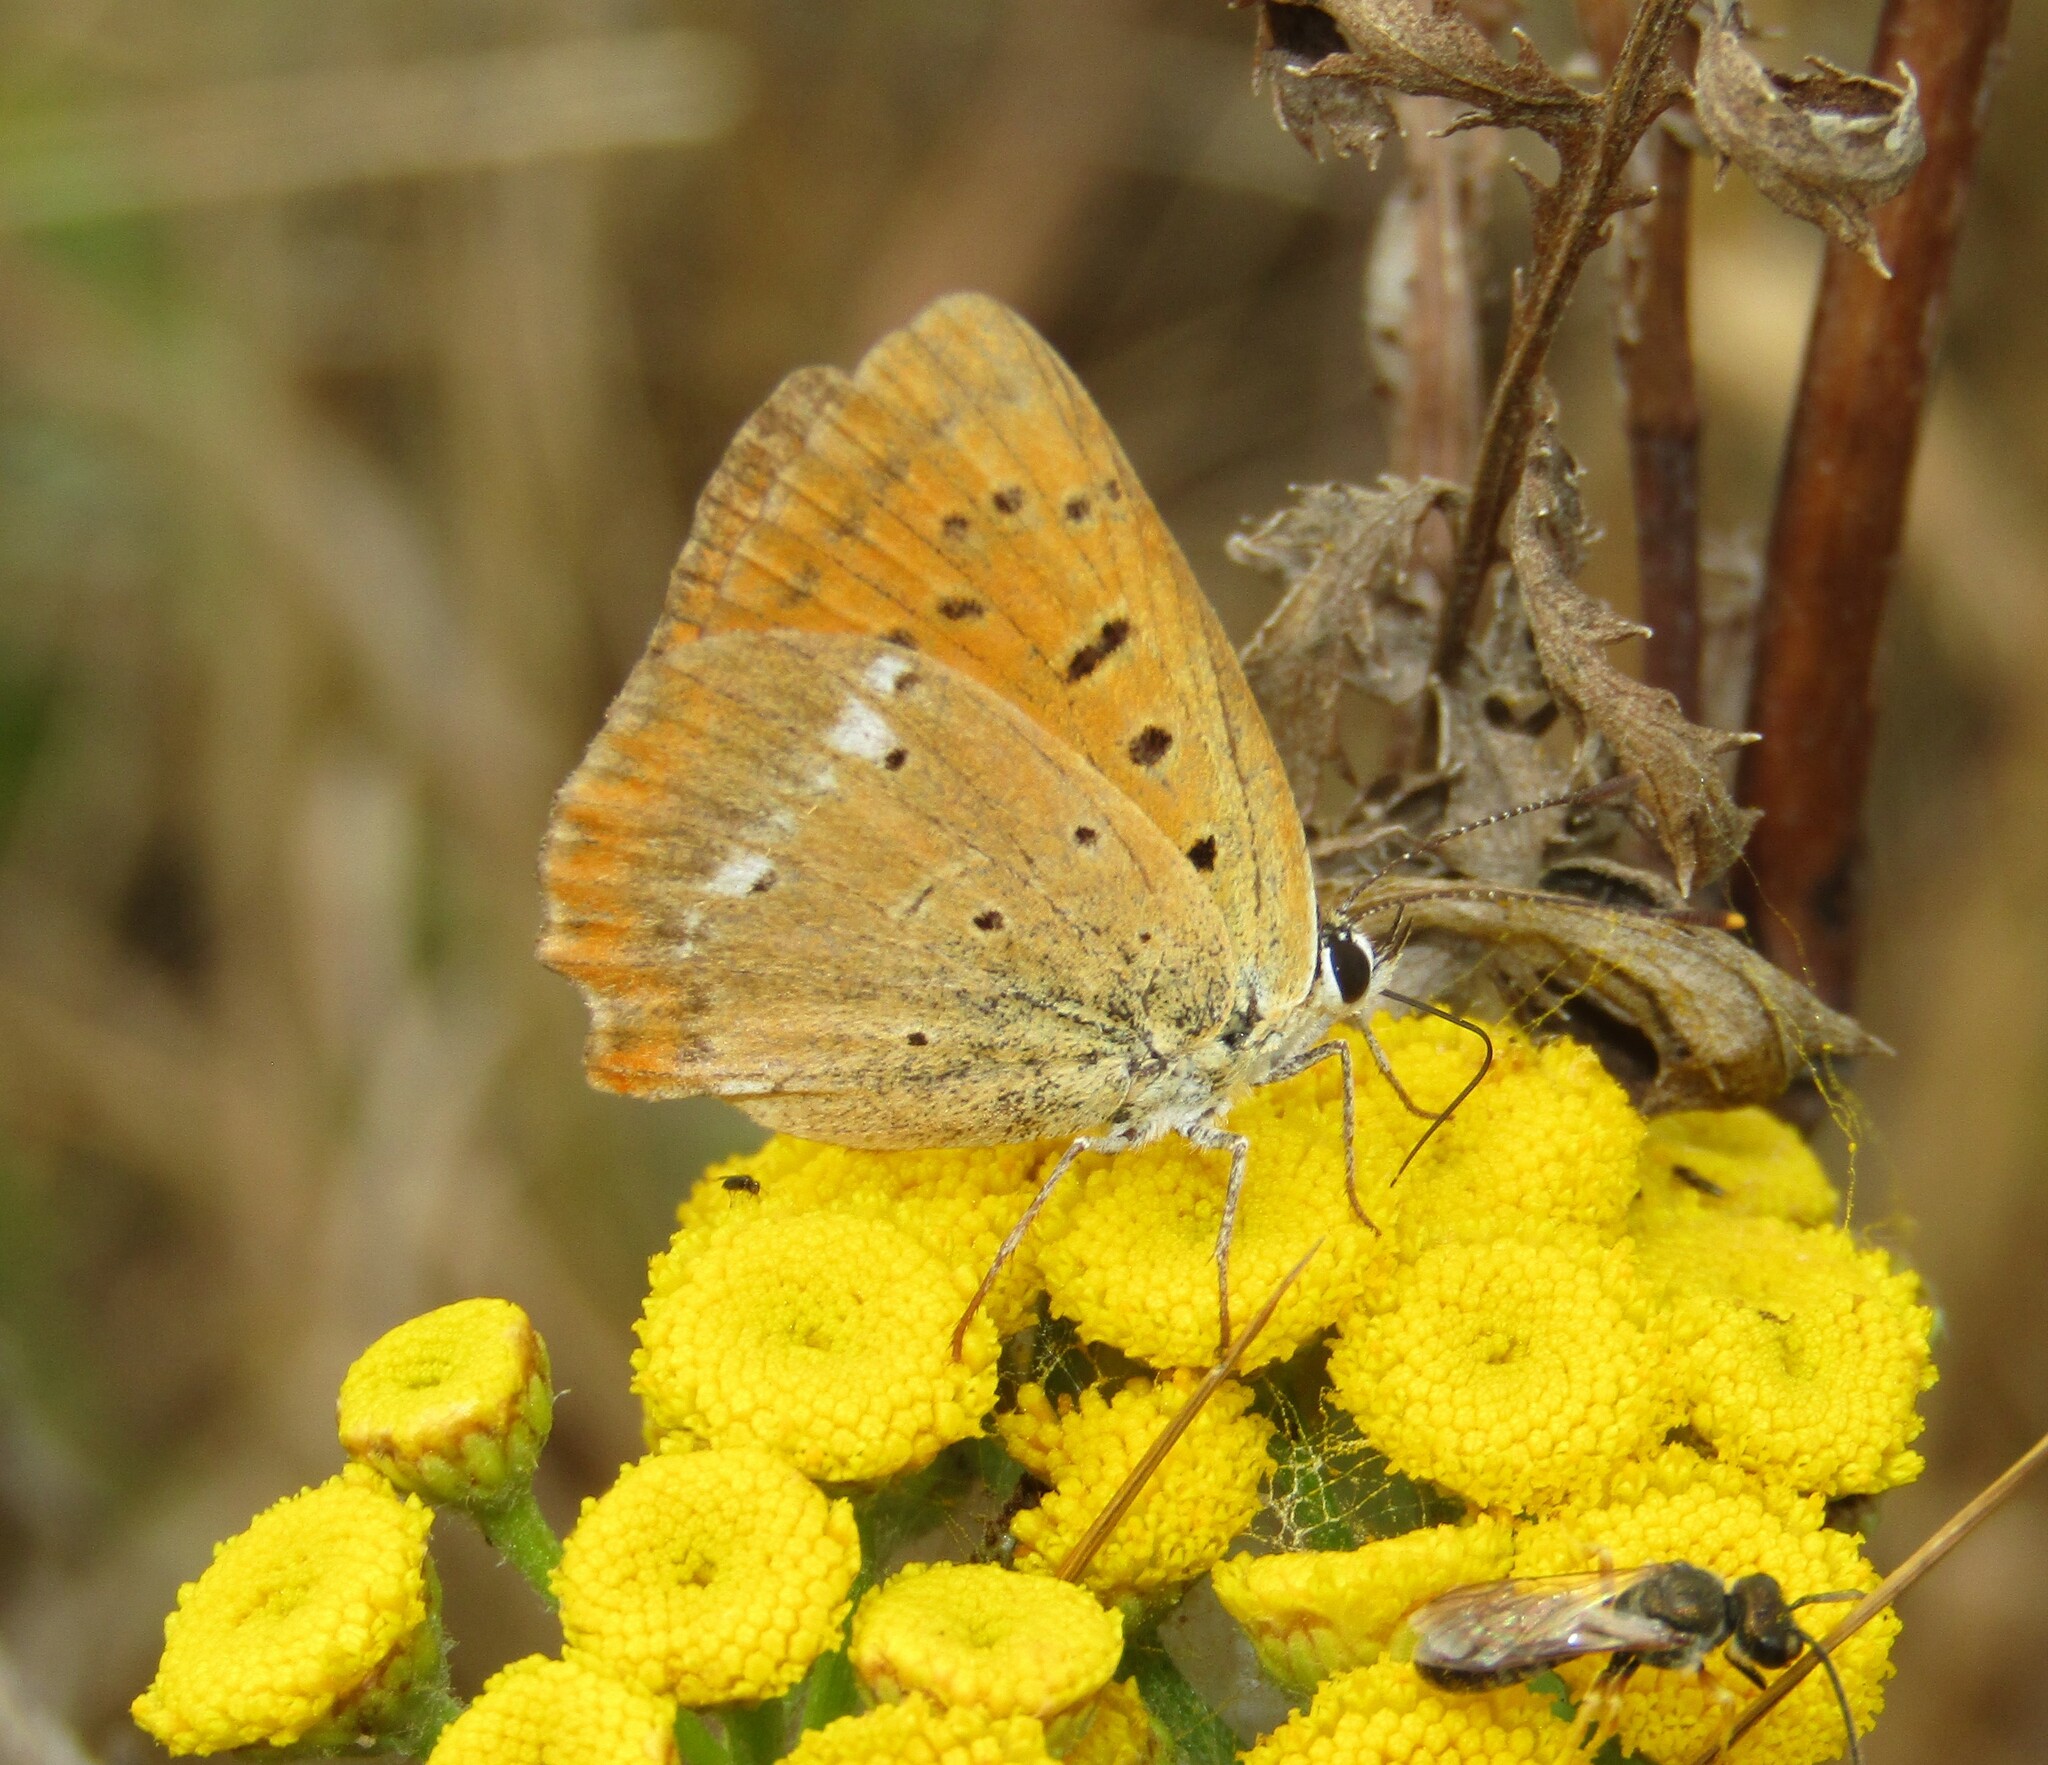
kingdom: Animalia
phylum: Arthropoda
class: Insecta
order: Lepidoptera
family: Lycaenidae
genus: Lycaena
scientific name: Lycaena virgaureae
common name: Scarce copper
